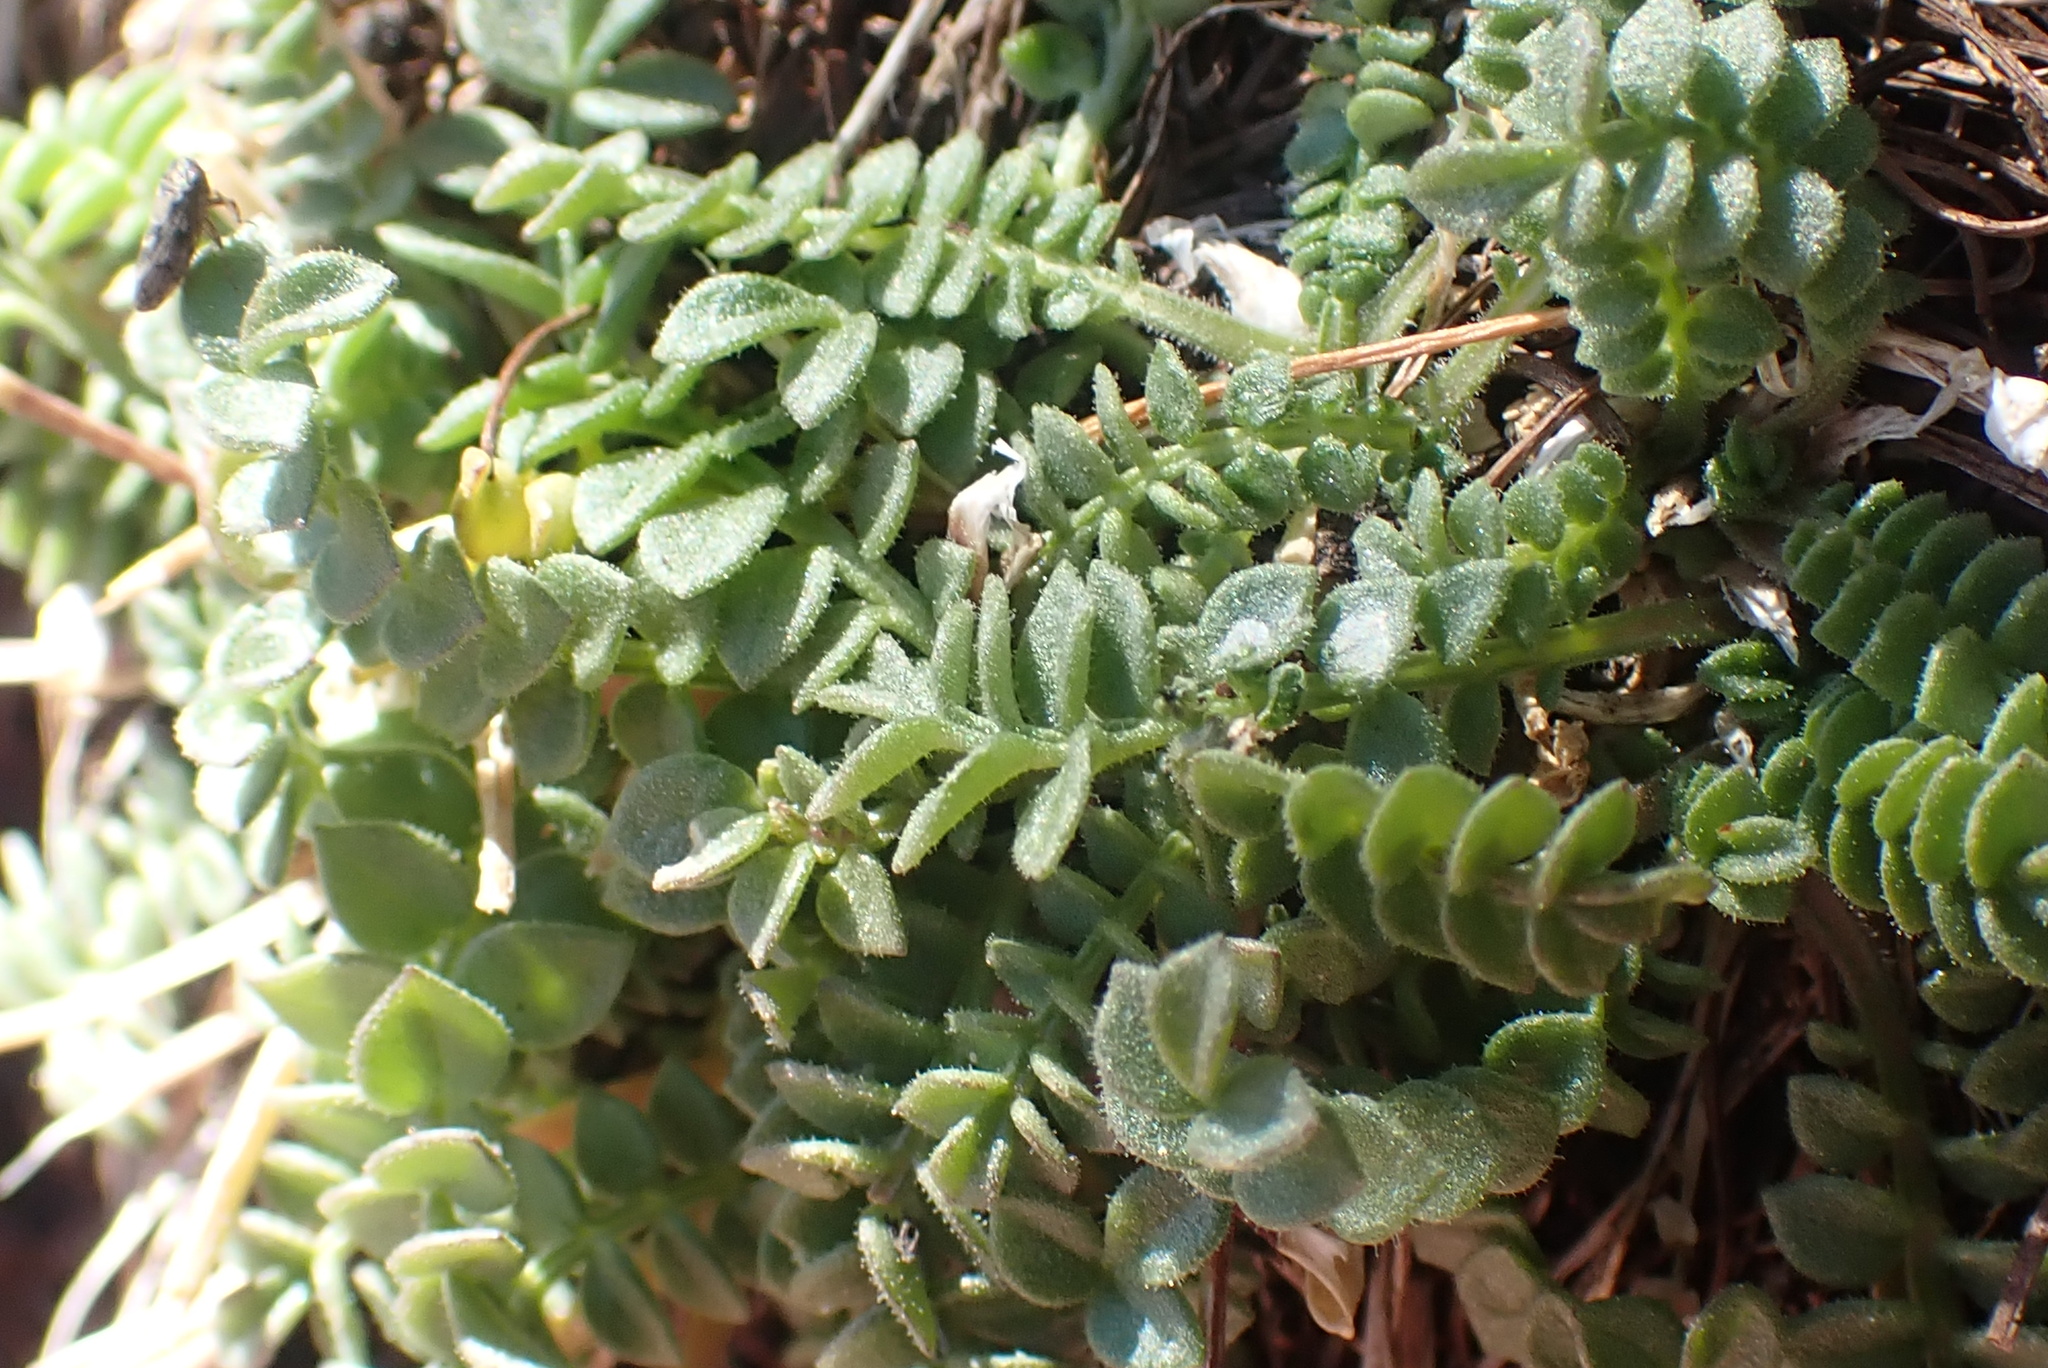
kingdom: Plantae
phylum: Tracheophyta
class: Magnoliopsida
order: Ericales
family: Polemoniaceae
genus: Polemonium
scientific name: Polemonium pulcherrimum
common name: Short jacob's-ladder
